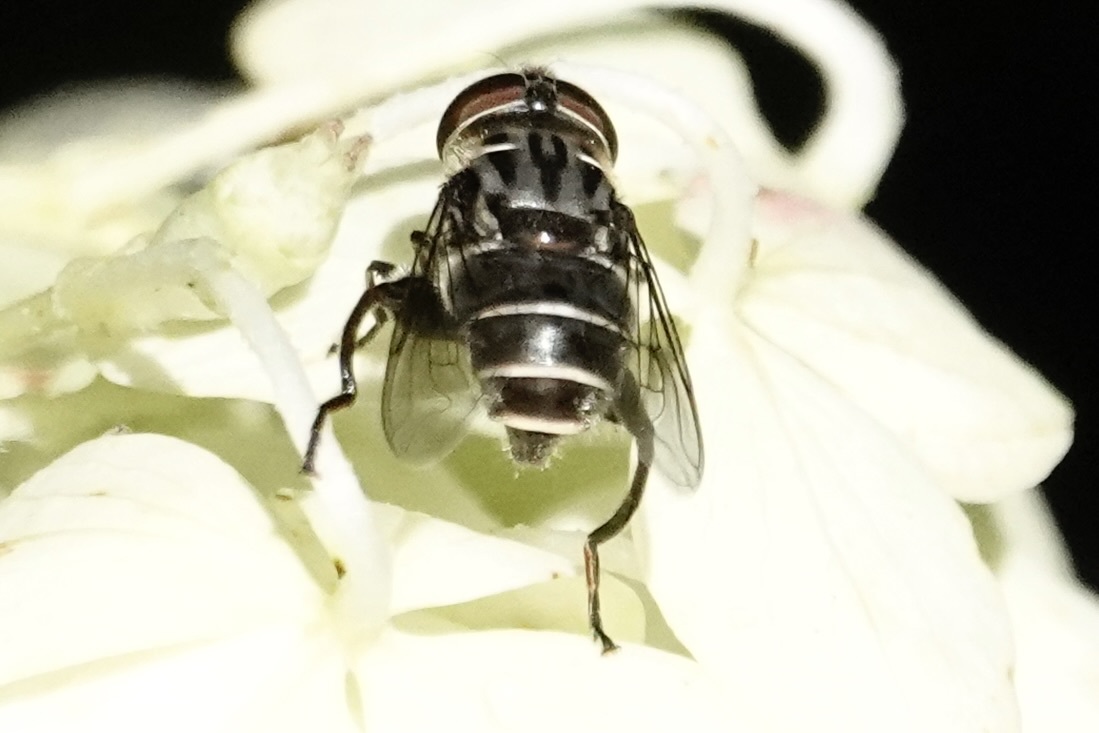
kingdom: Animalia
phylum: Arthropoda
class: Insecta
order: Diptera
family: Syrphidae
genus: Palpada
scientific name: Palpada furcata
